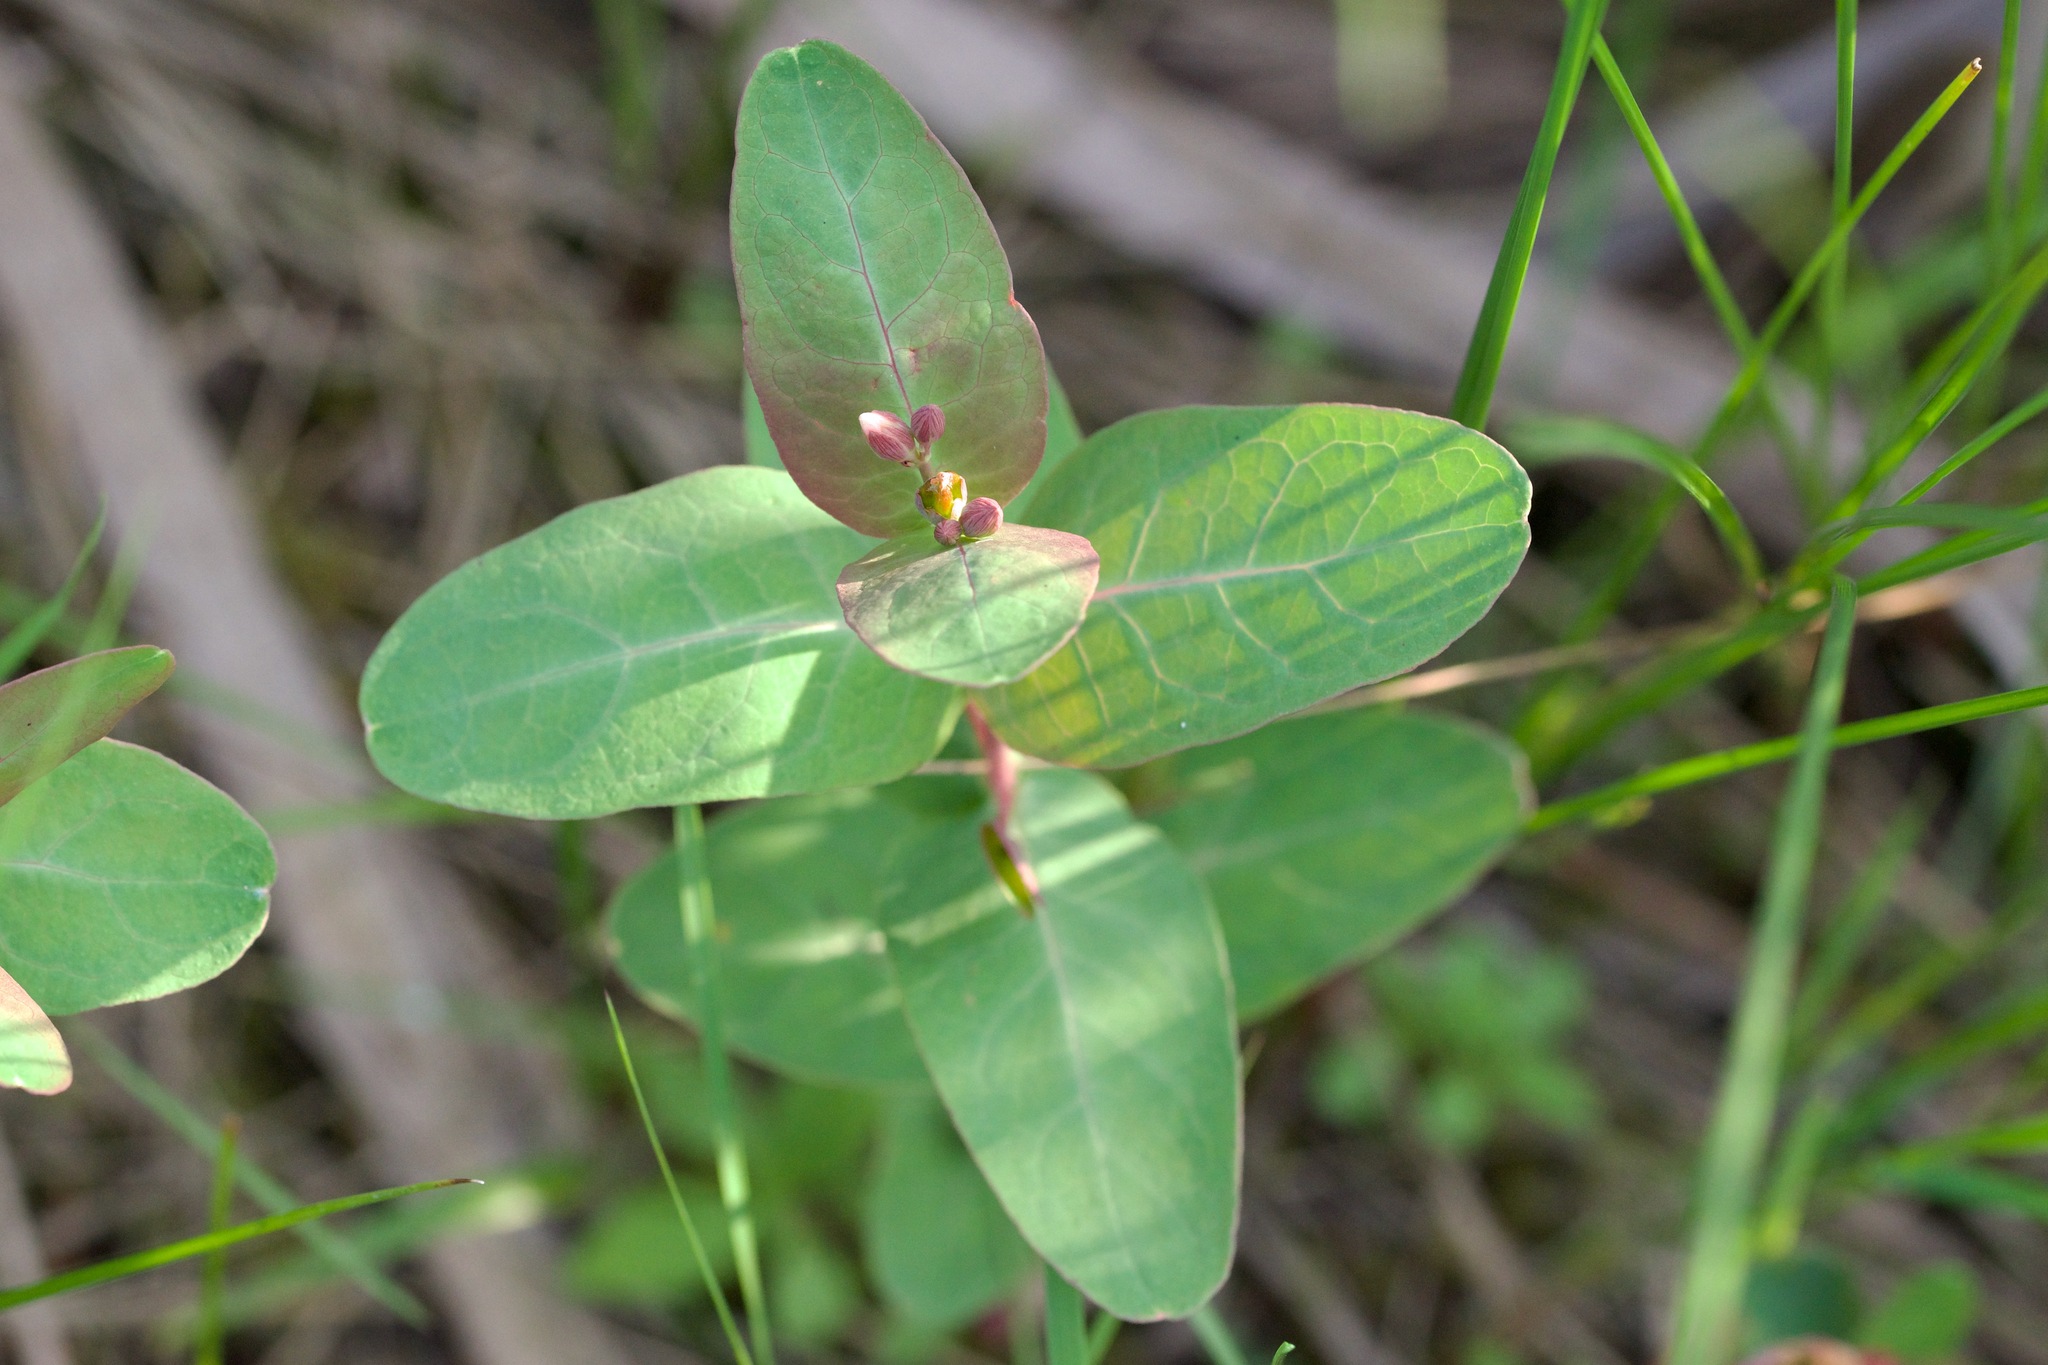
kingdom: Plantae
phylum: Tracheophyta
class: Magnoliopsida
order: Malpighiales
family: Hypericaceae
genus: Triadenum
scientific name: Triadenum fraseri
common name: Fraser's marsh st. johnswort
